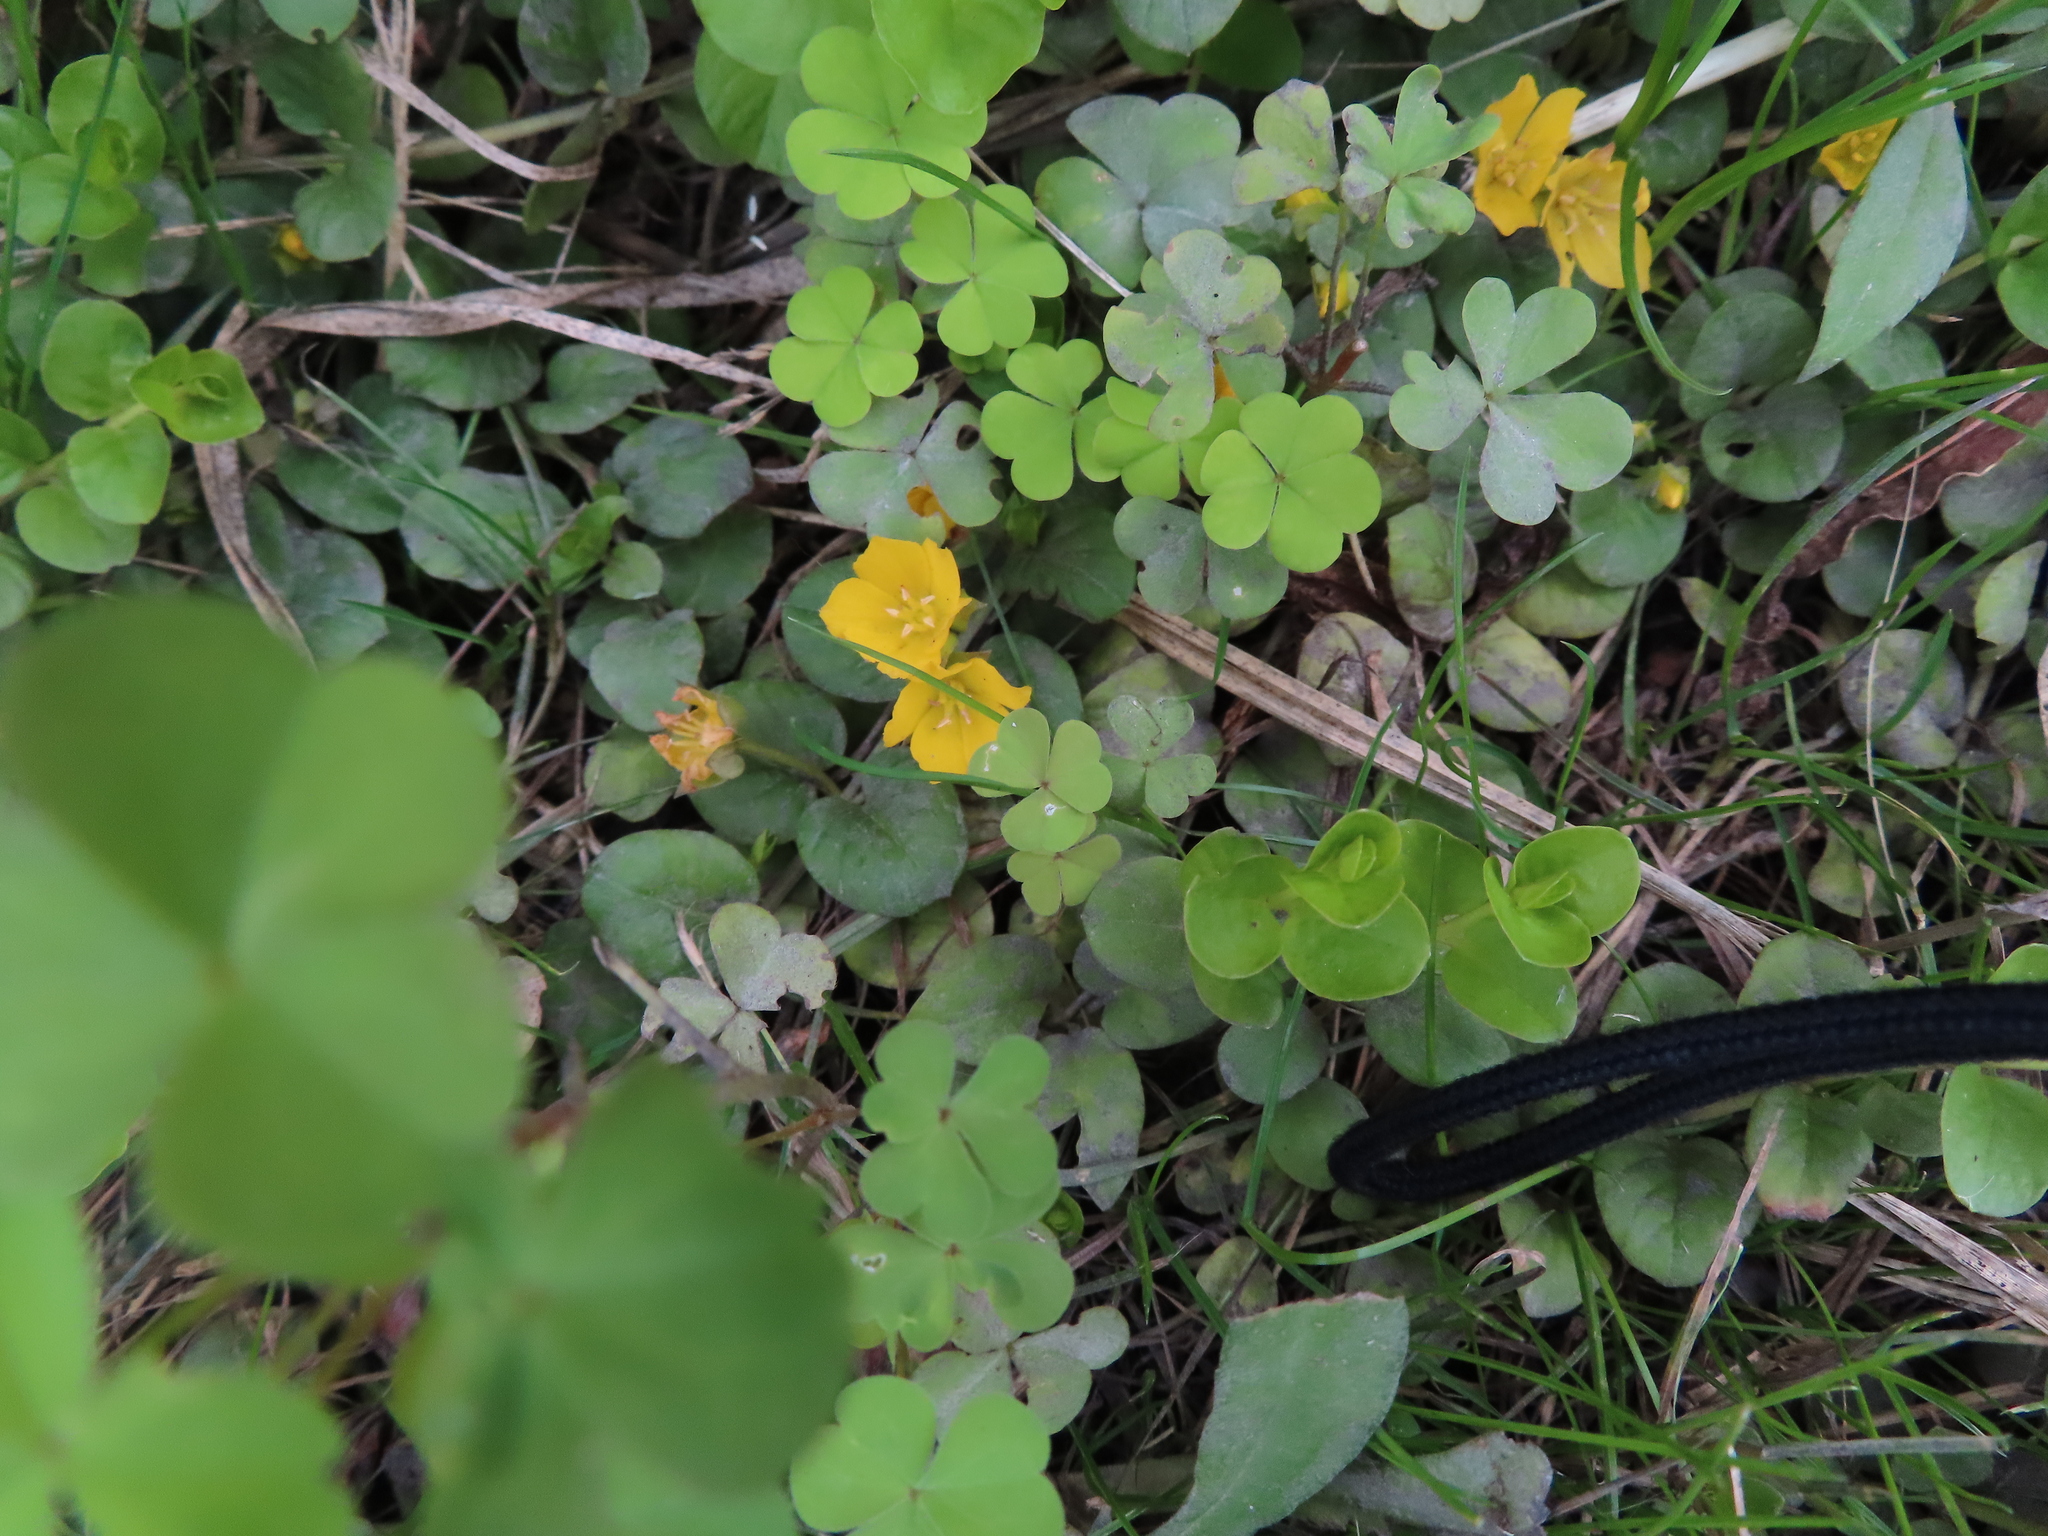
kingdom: Plantae
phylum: Tracheophyta
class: Magnoliopsida
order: Ericales
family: Primulaceae
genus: Lysimachia
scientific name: Lysimachia nummularia
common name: Moneywort
